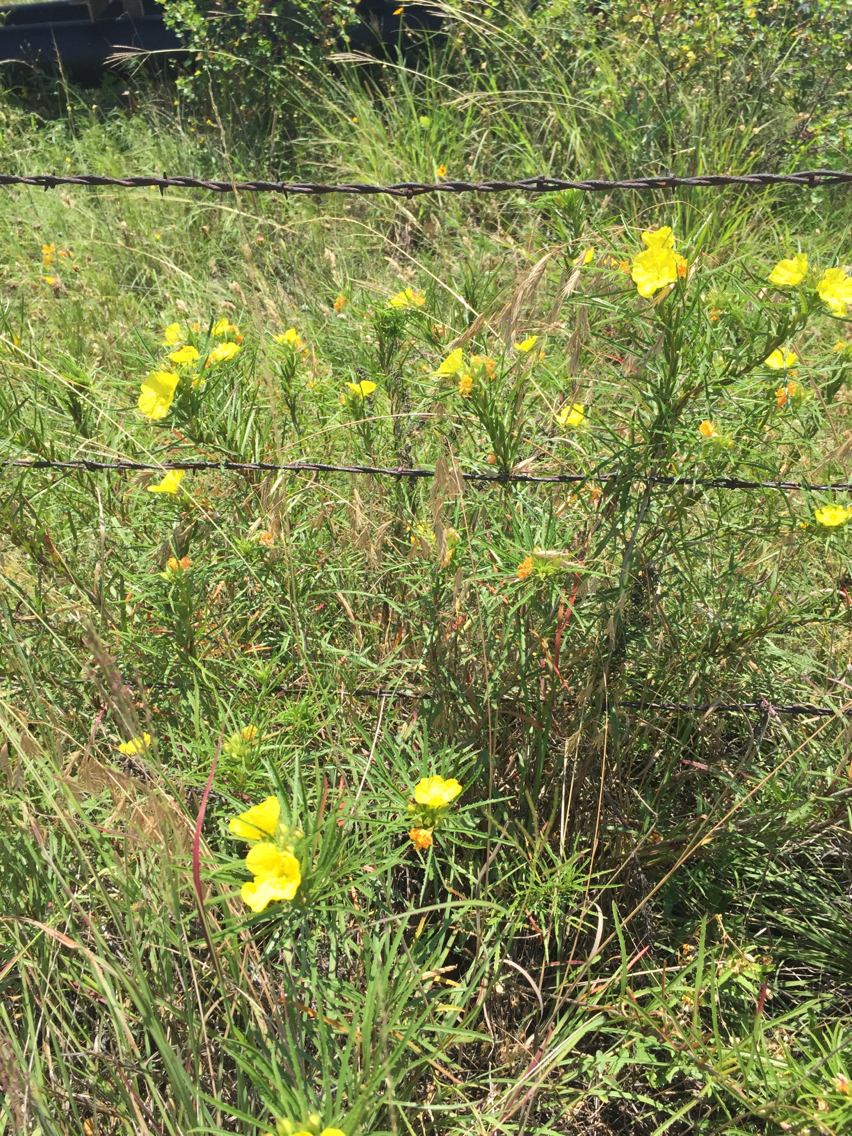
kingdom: Plantae
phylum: Tracheophyta
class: Magnoliopsida
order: Myrtales
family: Onagraceae
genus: Oenothera
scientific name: Oenothera
